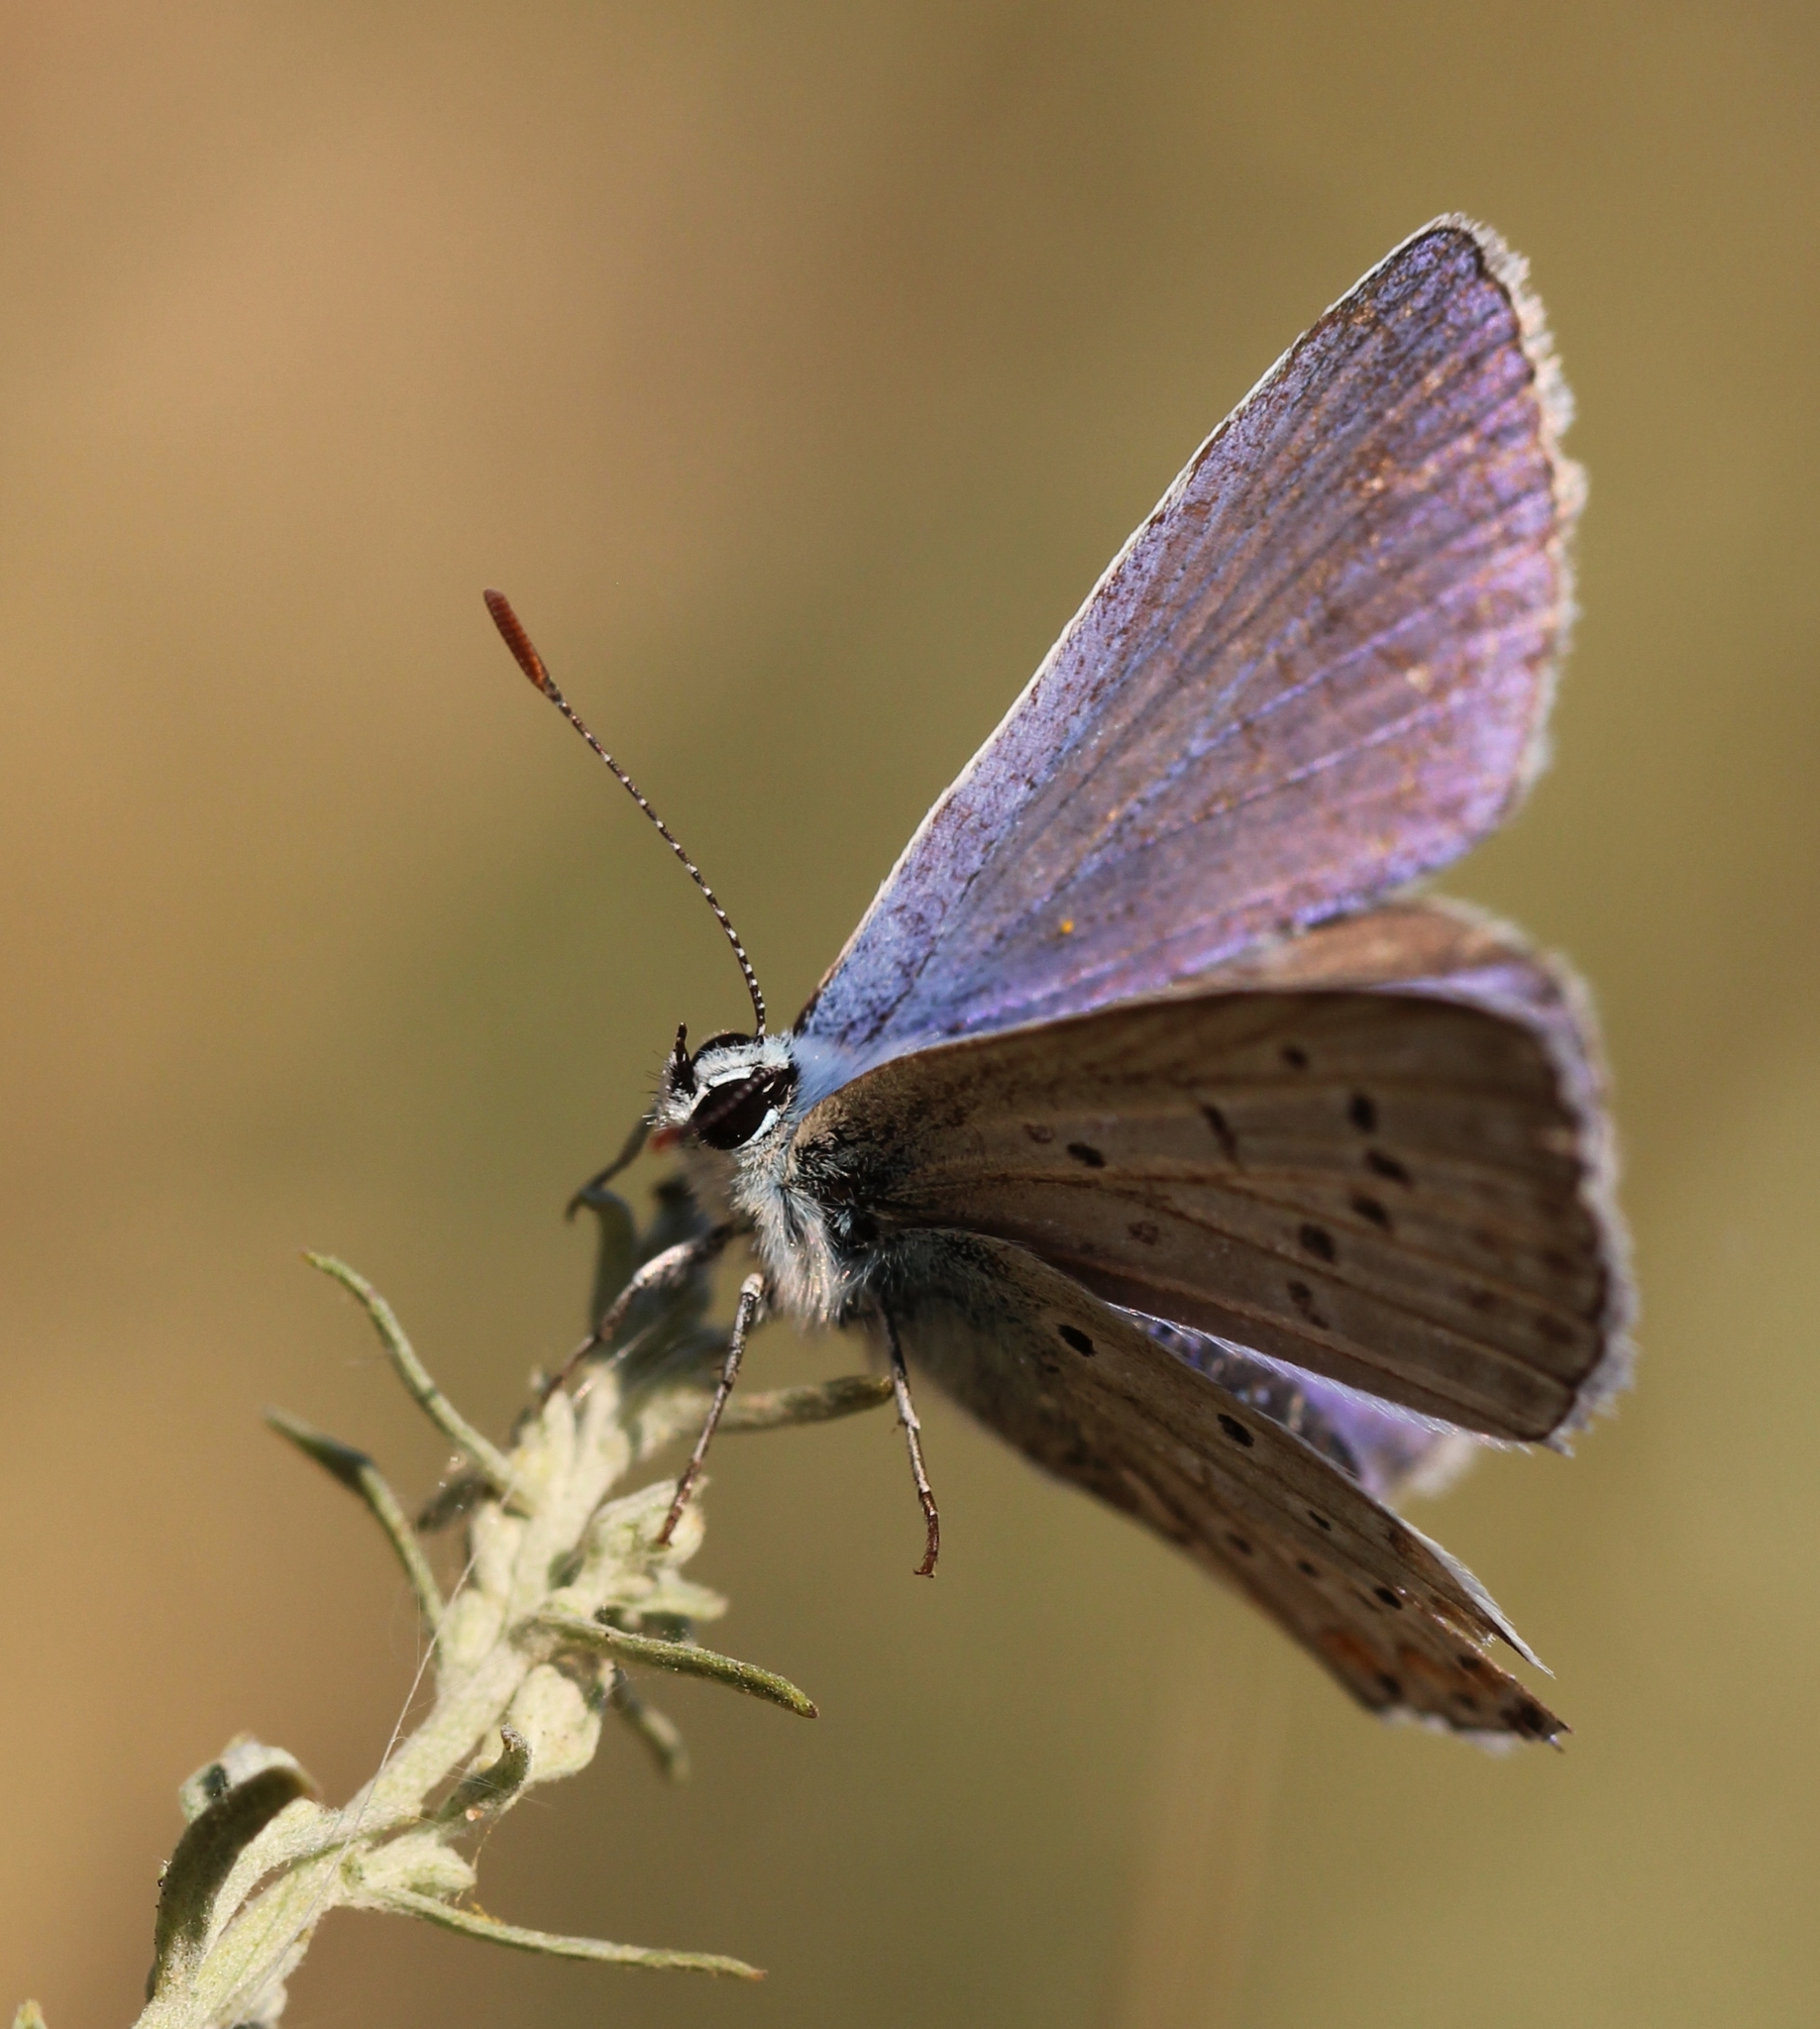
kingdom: Animalia
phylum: Arthropoda
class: Insecta
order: Lepidoptera
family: Lycaenidae
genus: Polyommatus
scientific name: Polyommatus icarus
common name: Common blue
